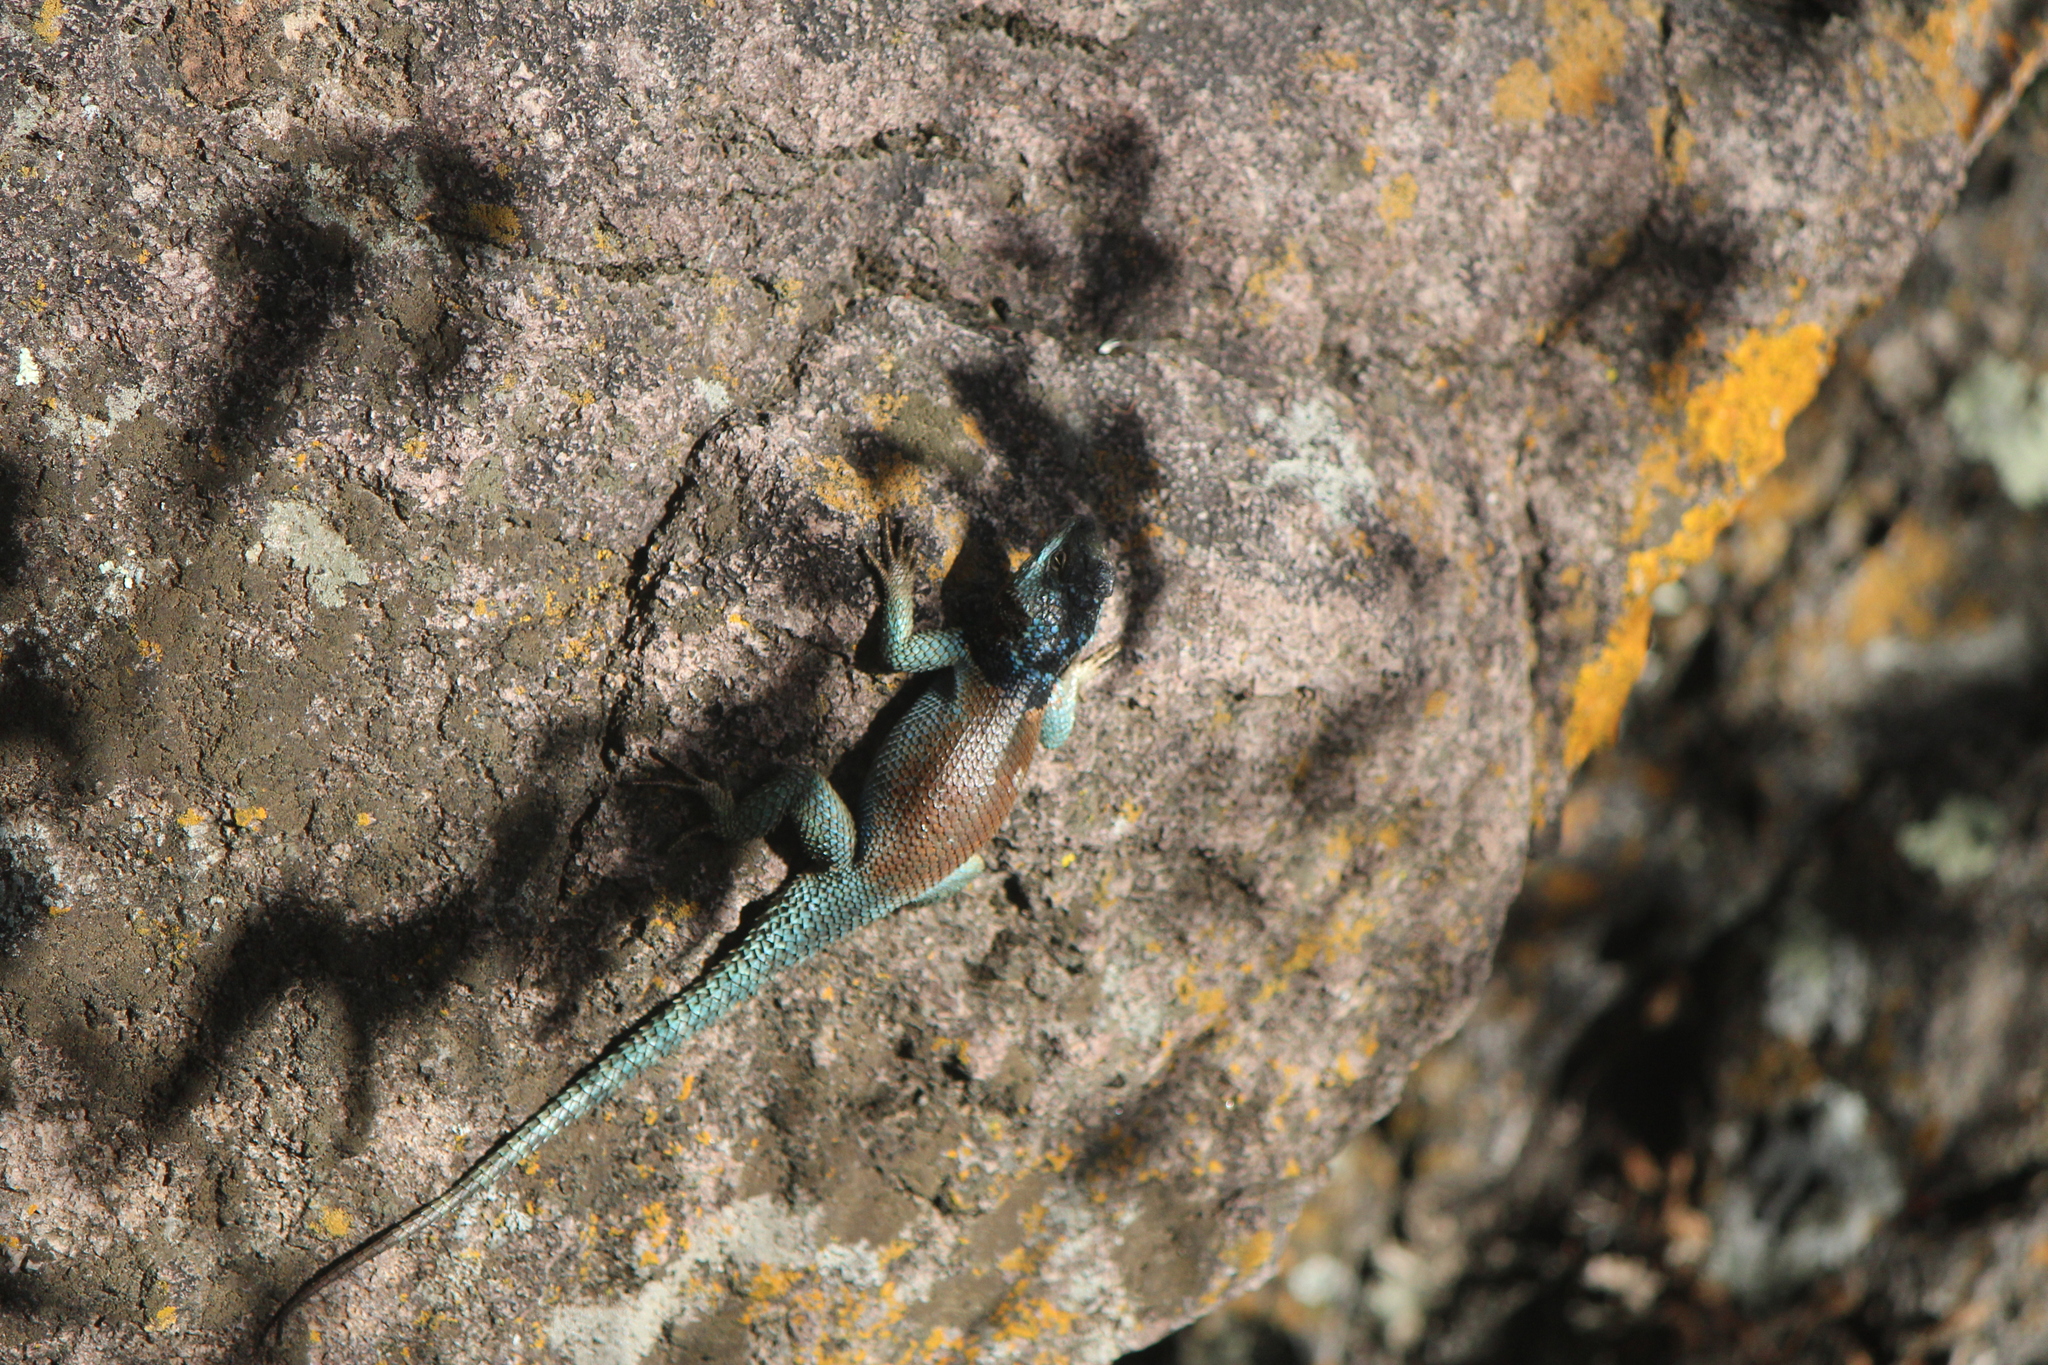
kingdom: Animalia
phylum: Chordata
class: Squamata
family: Phrynosomatidae
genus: Sceloporus
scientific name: Sceloporus minor
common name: Minor lizard
